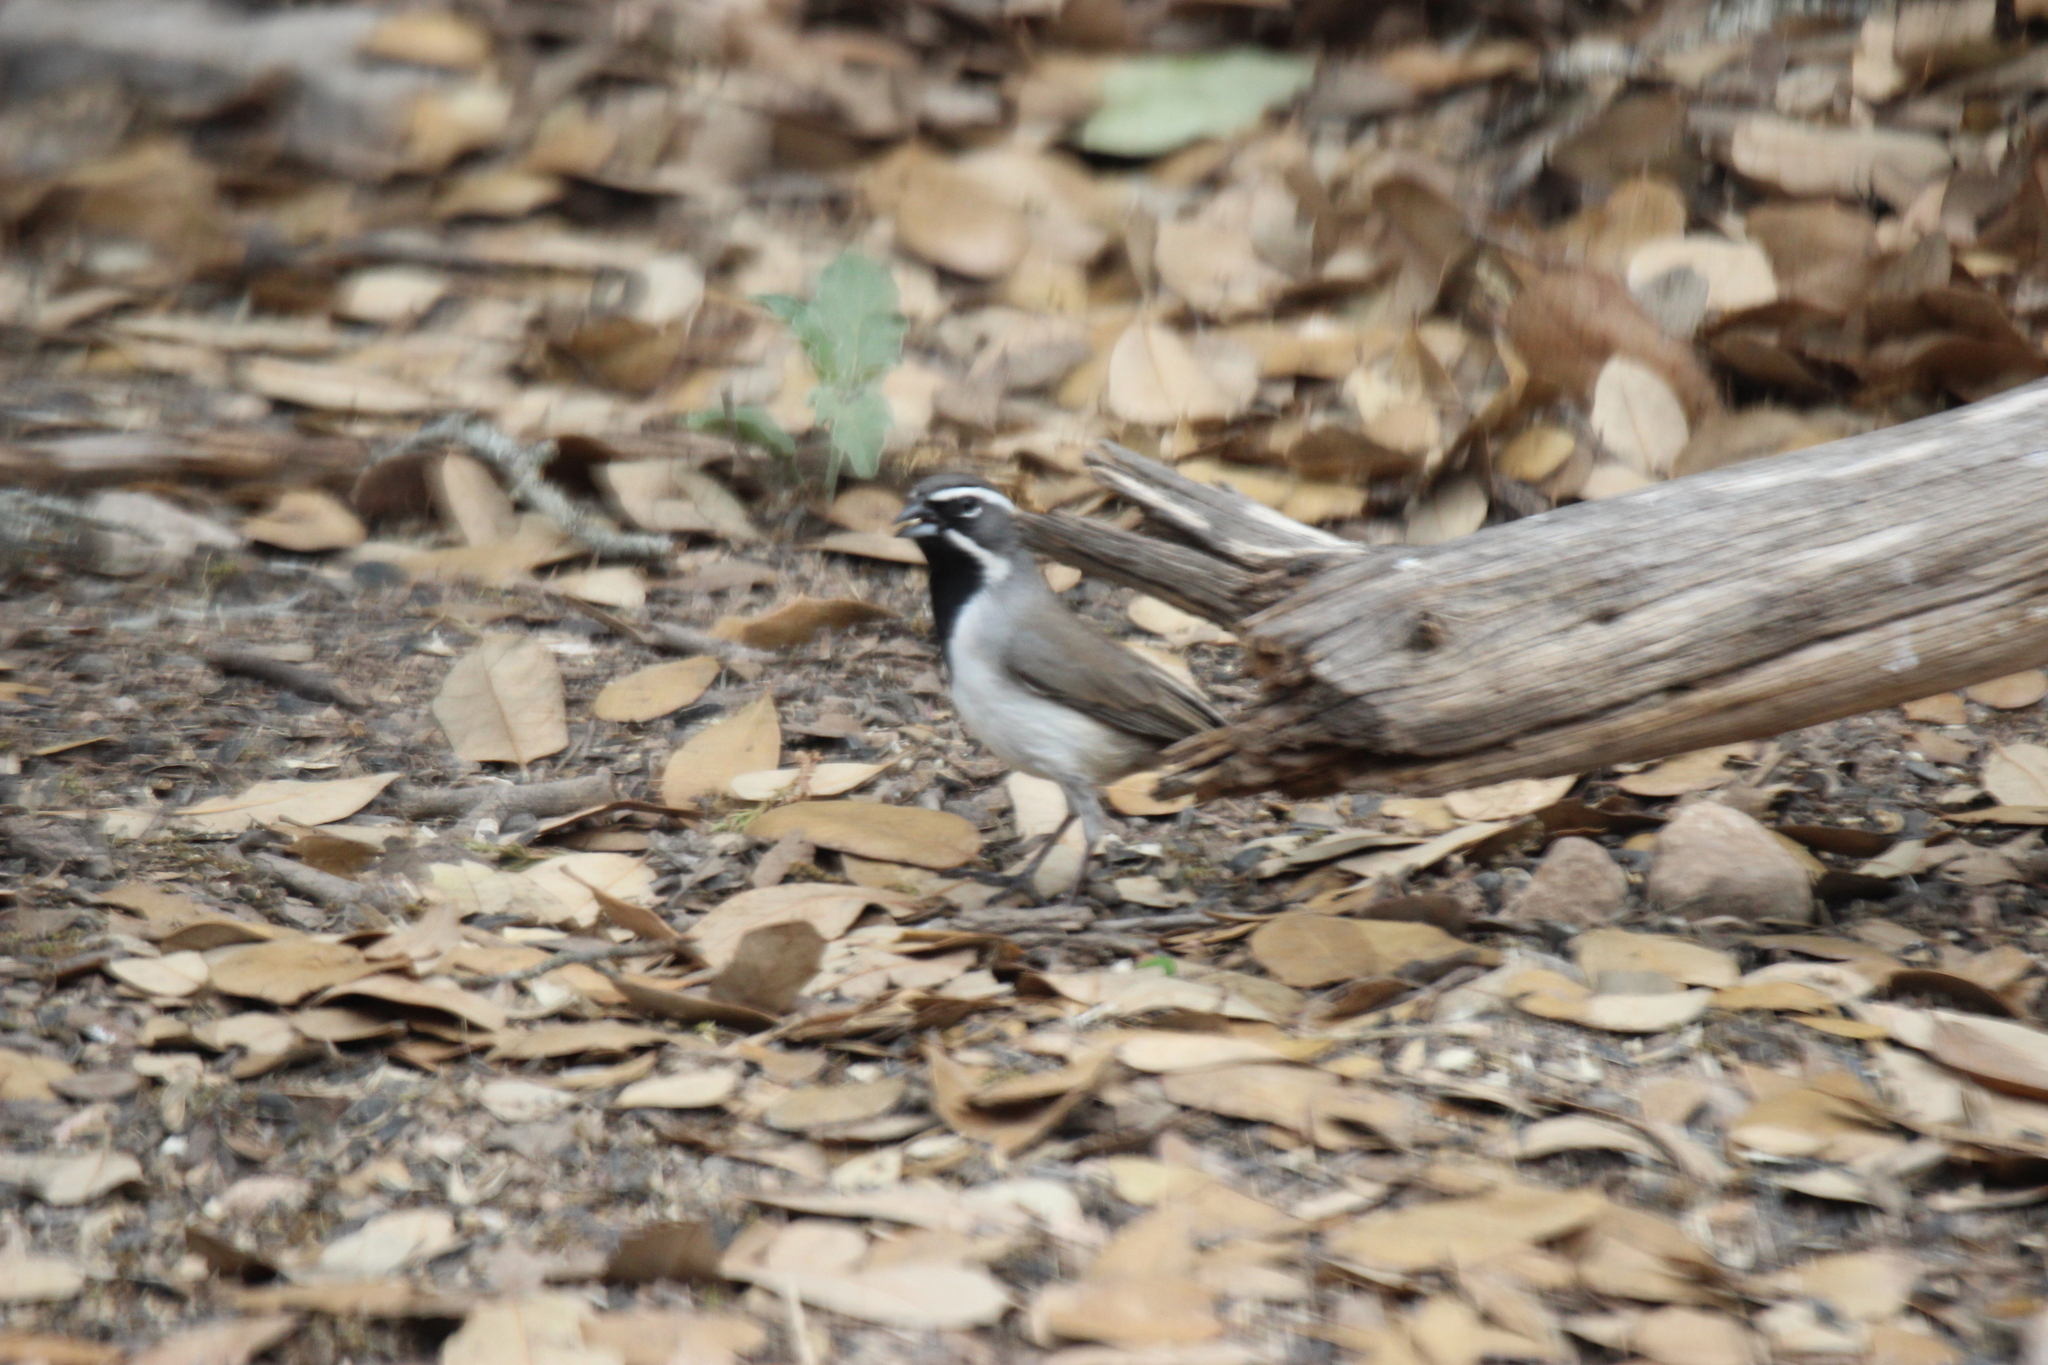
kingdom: Animalia
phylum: Chordata
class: Aves
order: Passeriformes
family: Passerellidae
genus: Amphispiza
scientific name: Amphispiza bilineata
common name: Black-throated sparrow
